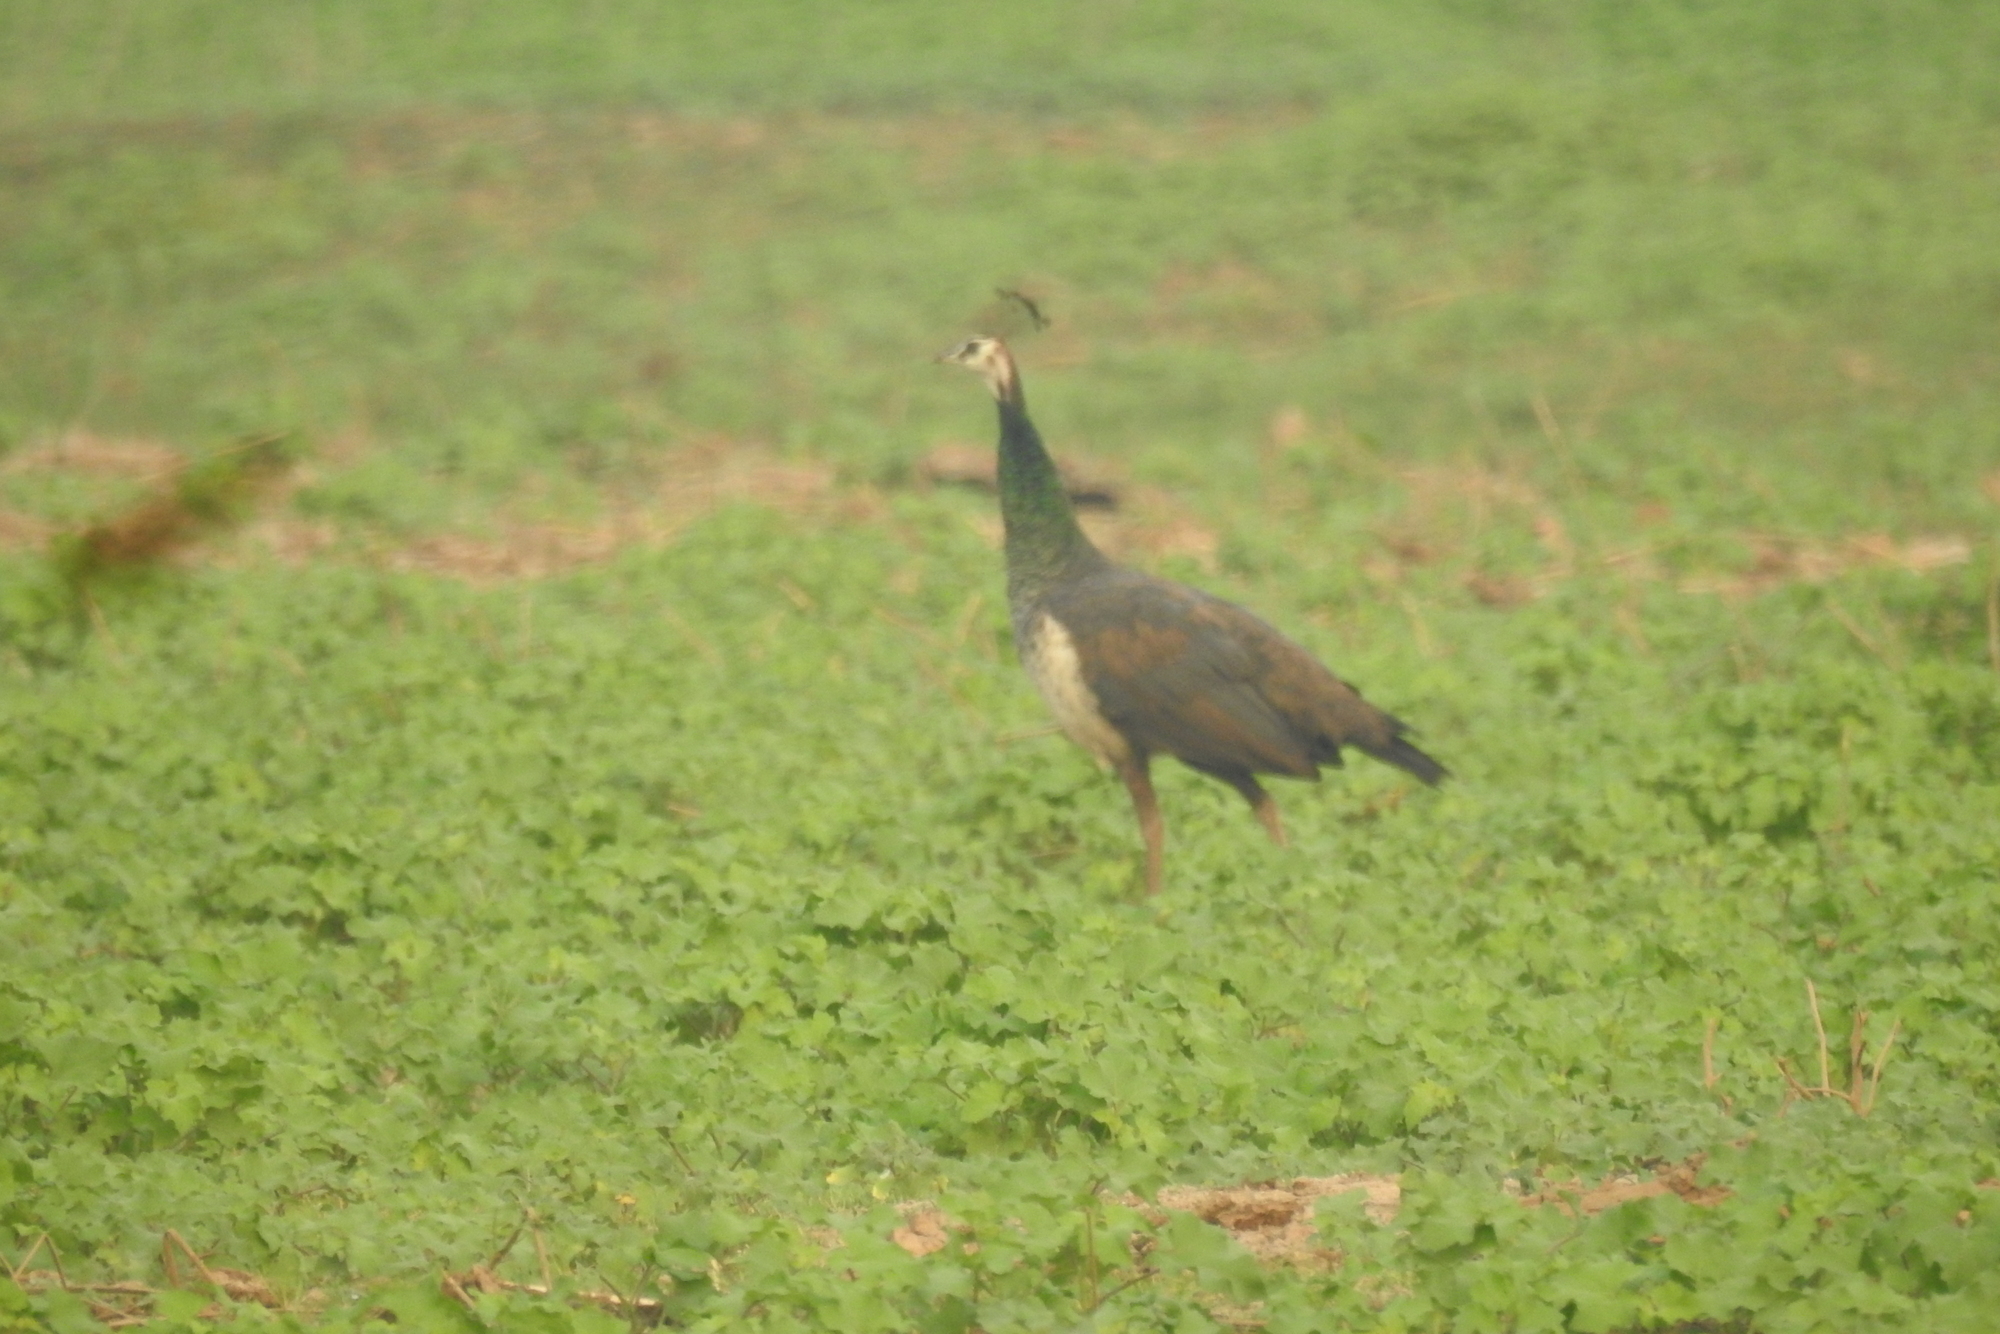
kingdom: Animalia
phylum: Chordata
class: Aves
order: Galliformes
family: Phasianidae
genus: Pavo
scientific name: Pavo cristatus
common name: Indian peafowl
